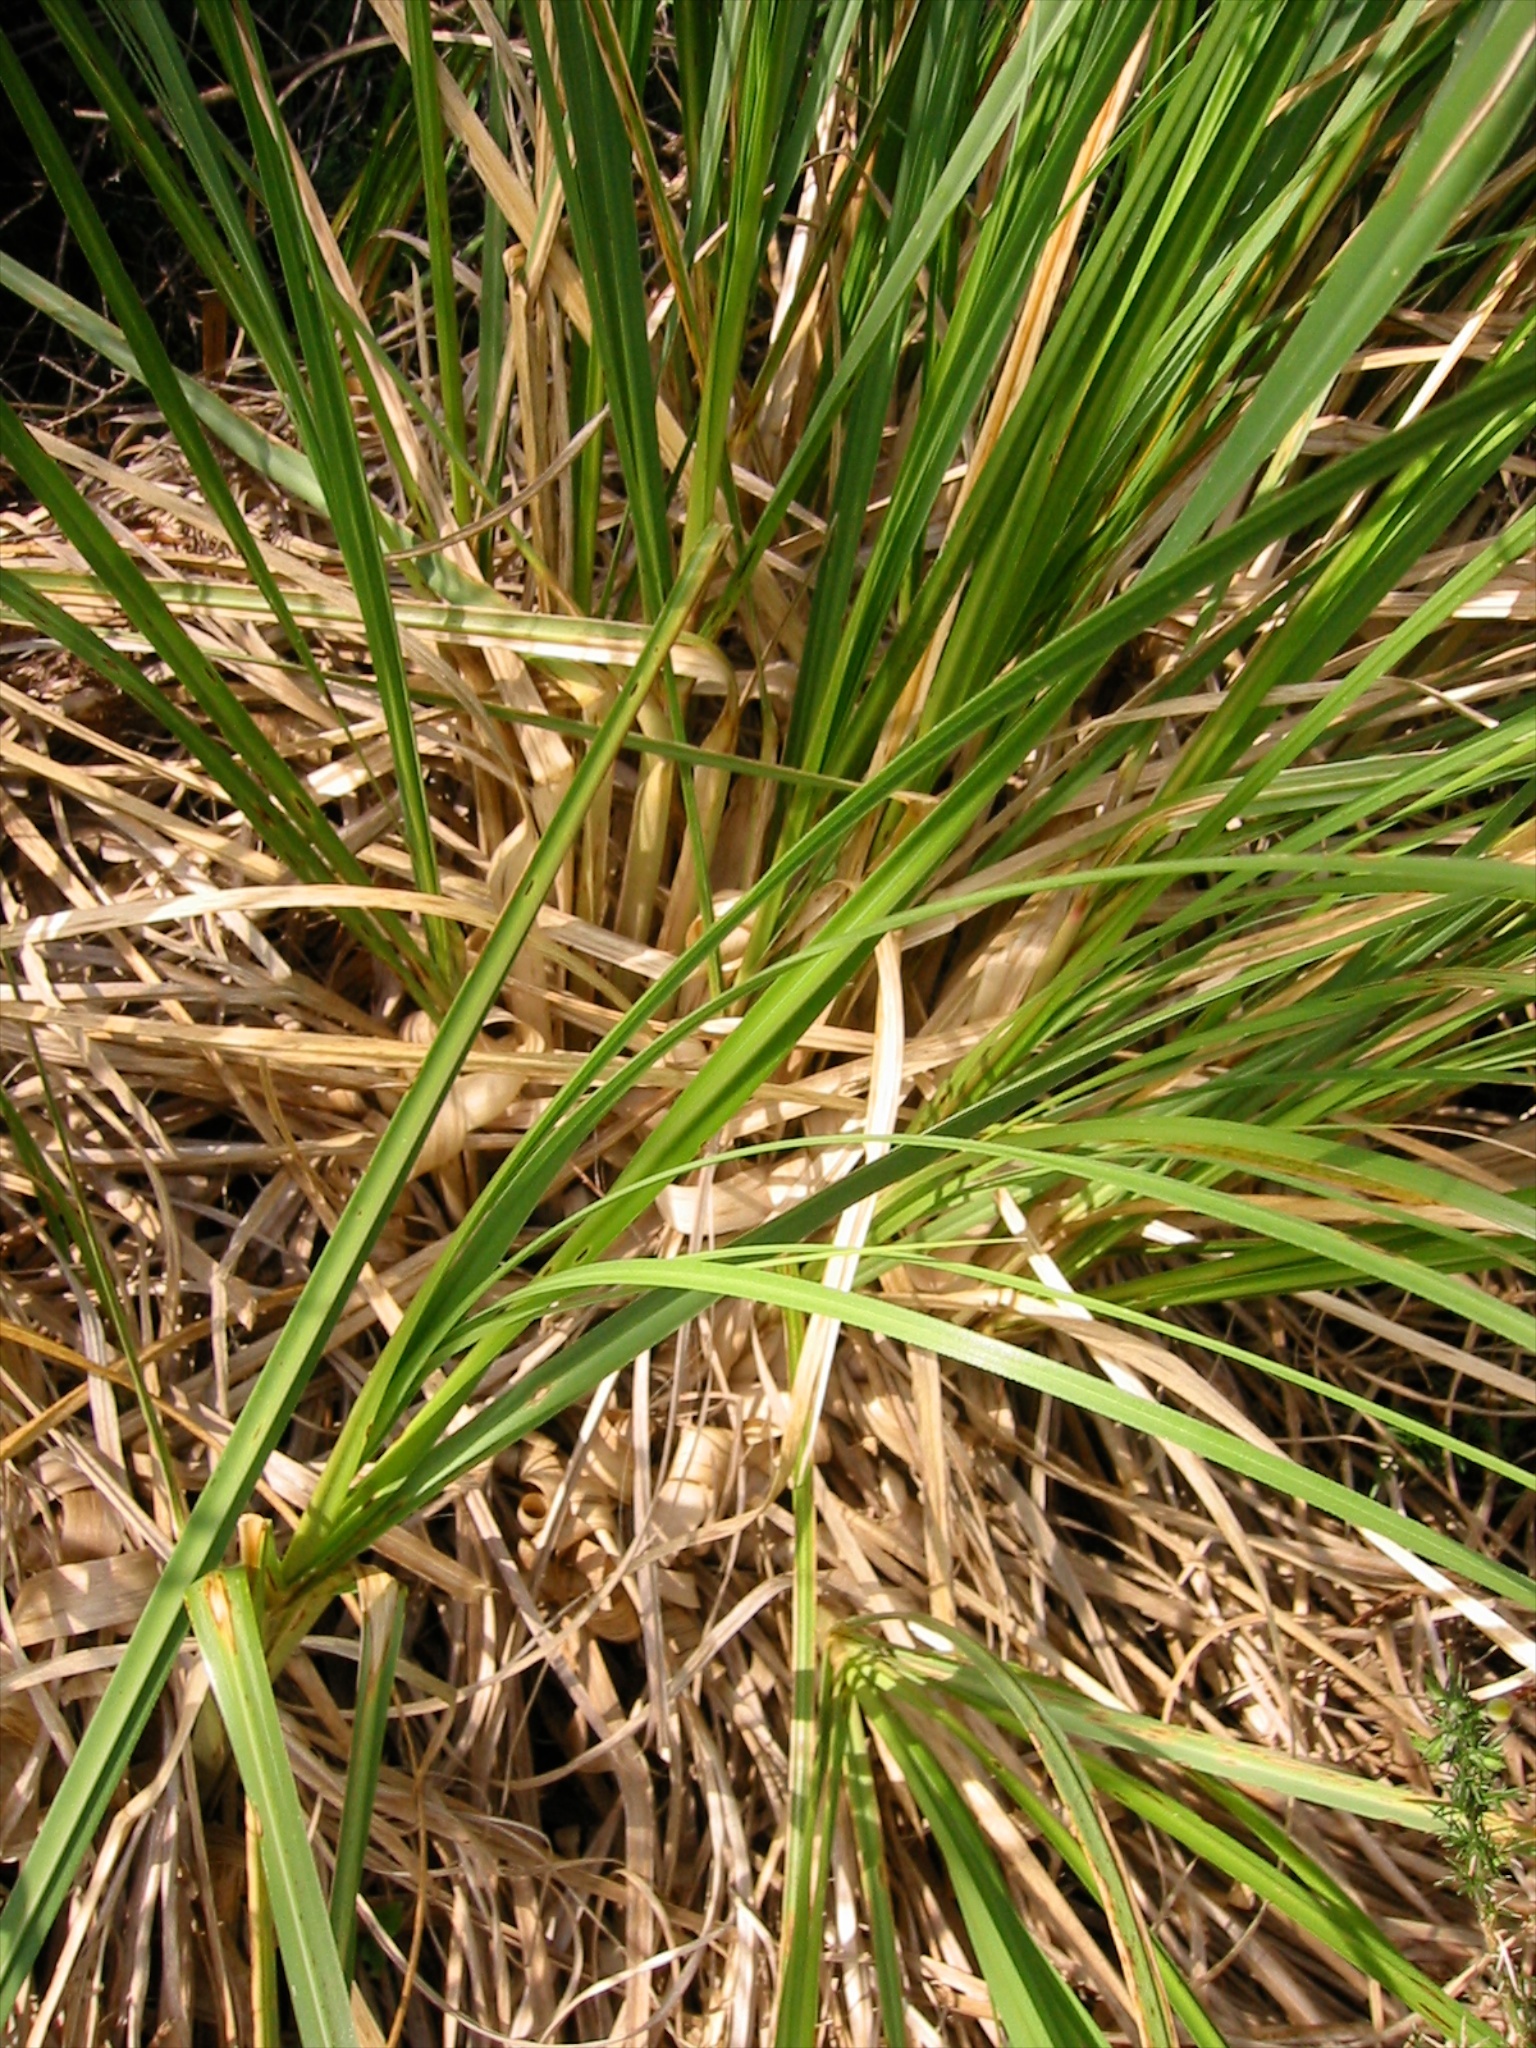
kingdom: Plantae
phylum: Tracheophyta
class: Liliopsida
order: Poales
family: Poaceae
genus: Cortaderia
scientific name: Cortaderia selloana
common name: Uruguayan pampas grass
